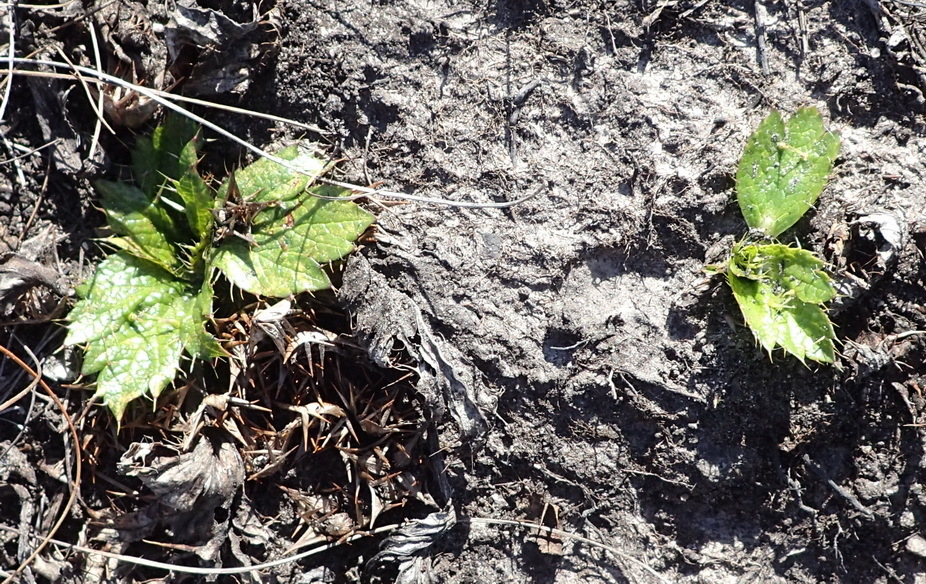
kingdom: Plantae
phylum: Tracheophyta
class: Magnoliopsida
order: Apiales
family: Apiaceae
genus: Arctopus
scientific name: Arctopus echinatus
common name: Platdoring
